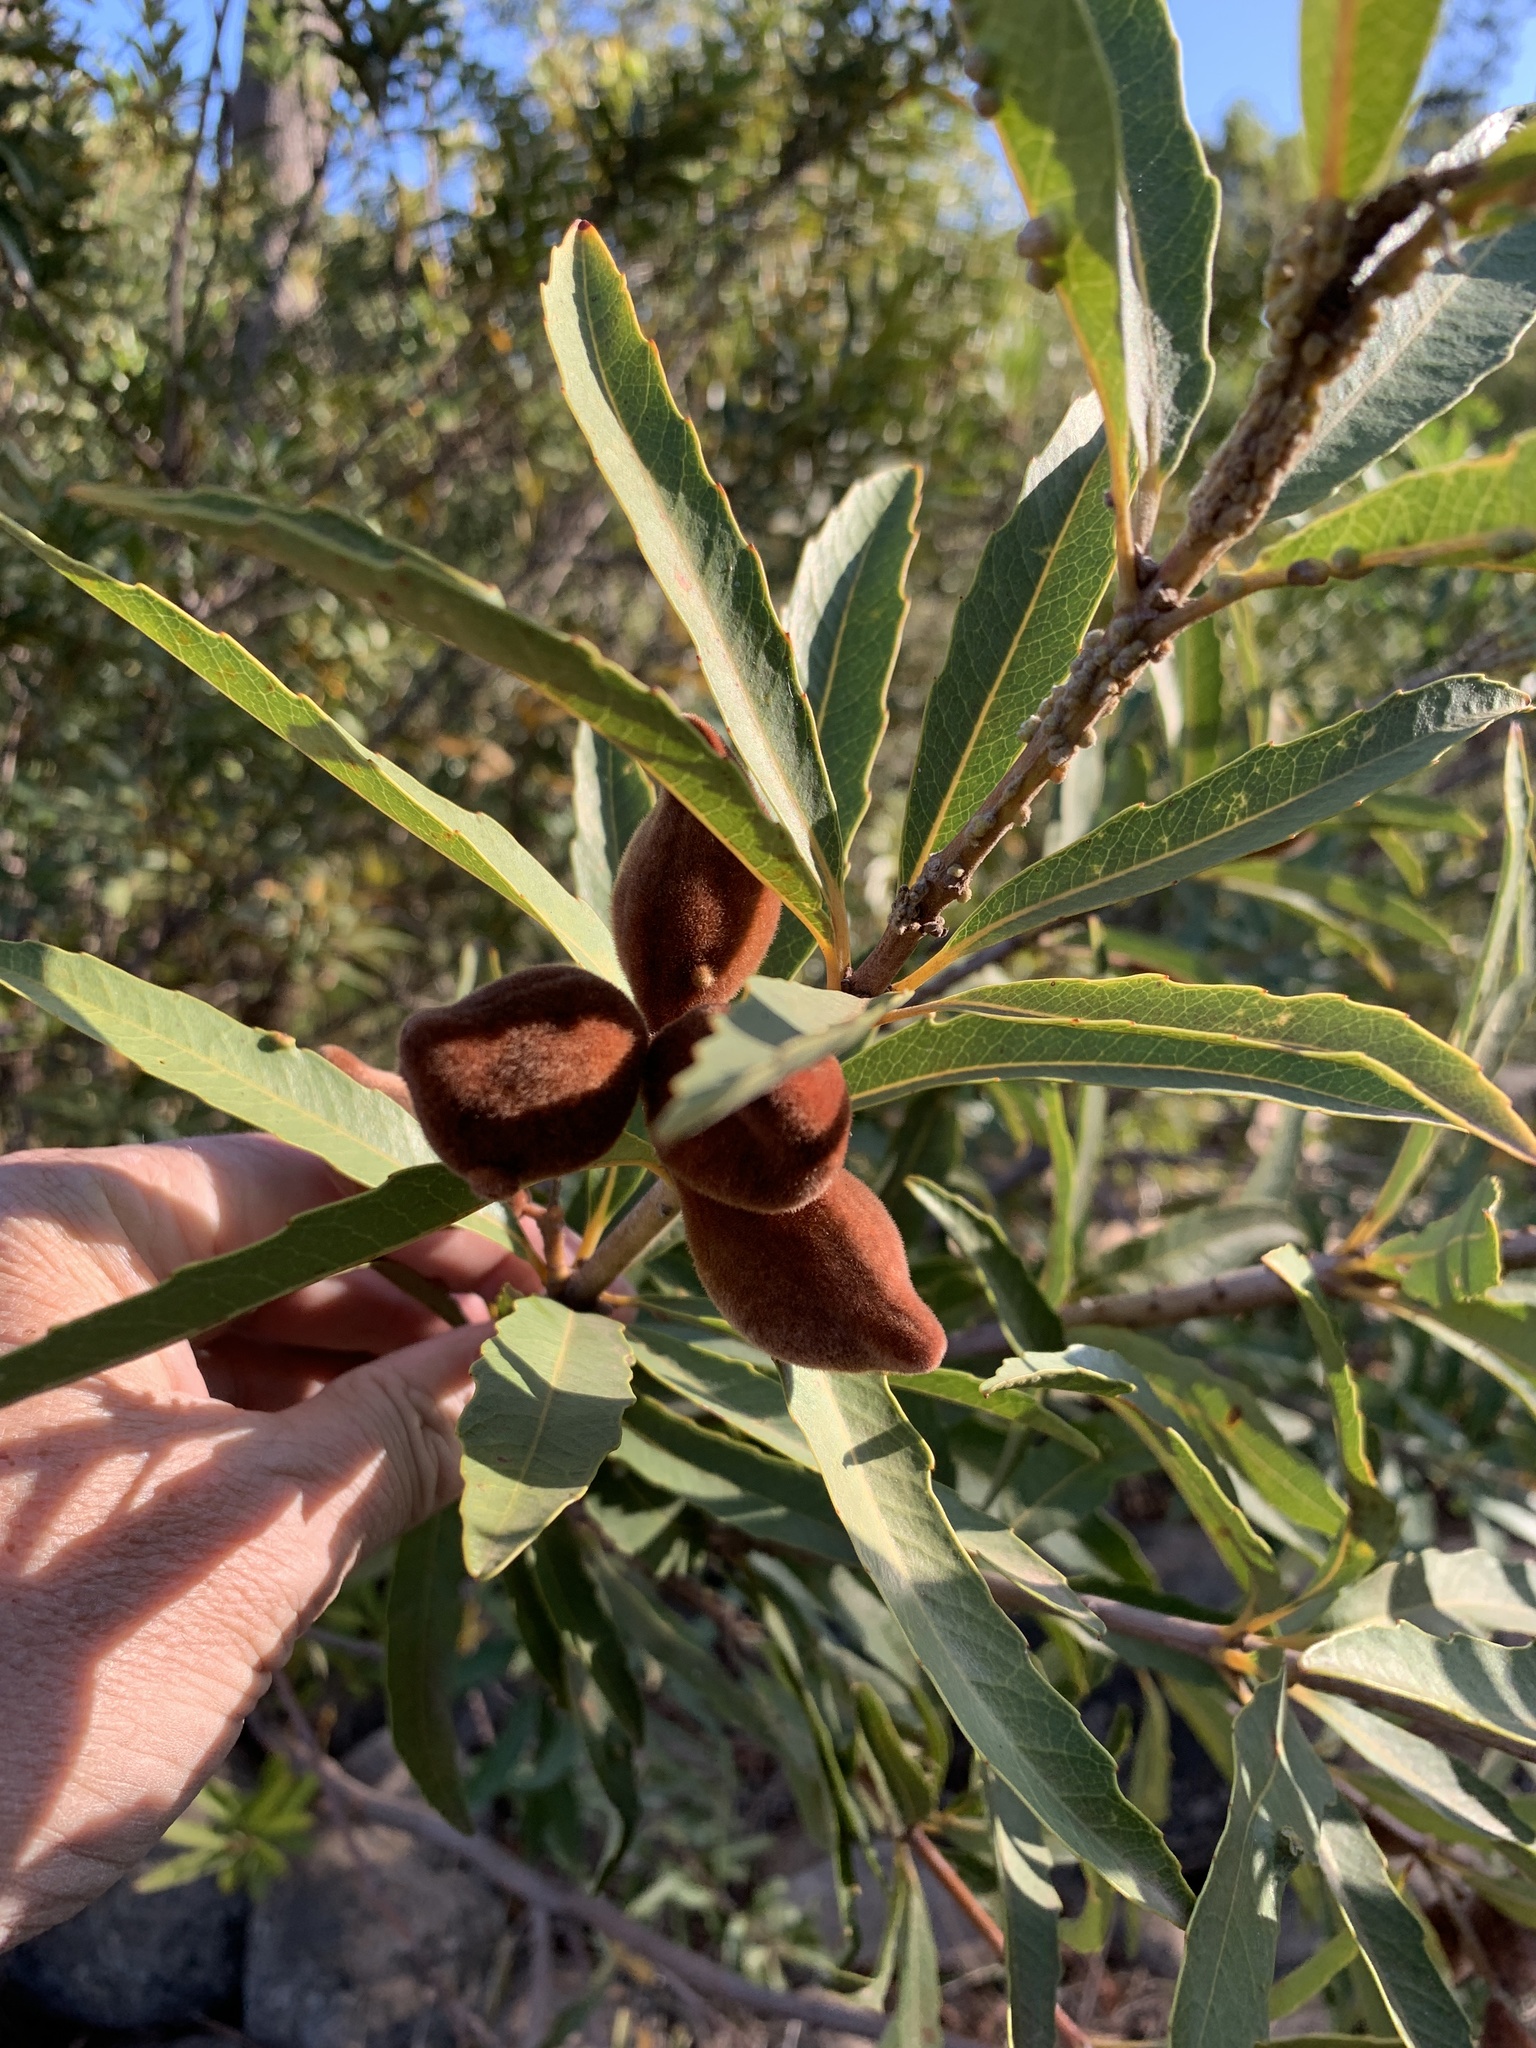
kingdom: Plantae
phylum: Tracheophyta
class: Magnoliopsida
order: Proteales
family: Proteaceae
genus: Brabejum
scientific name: Brabejum stellatifolium
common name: Wild almond
